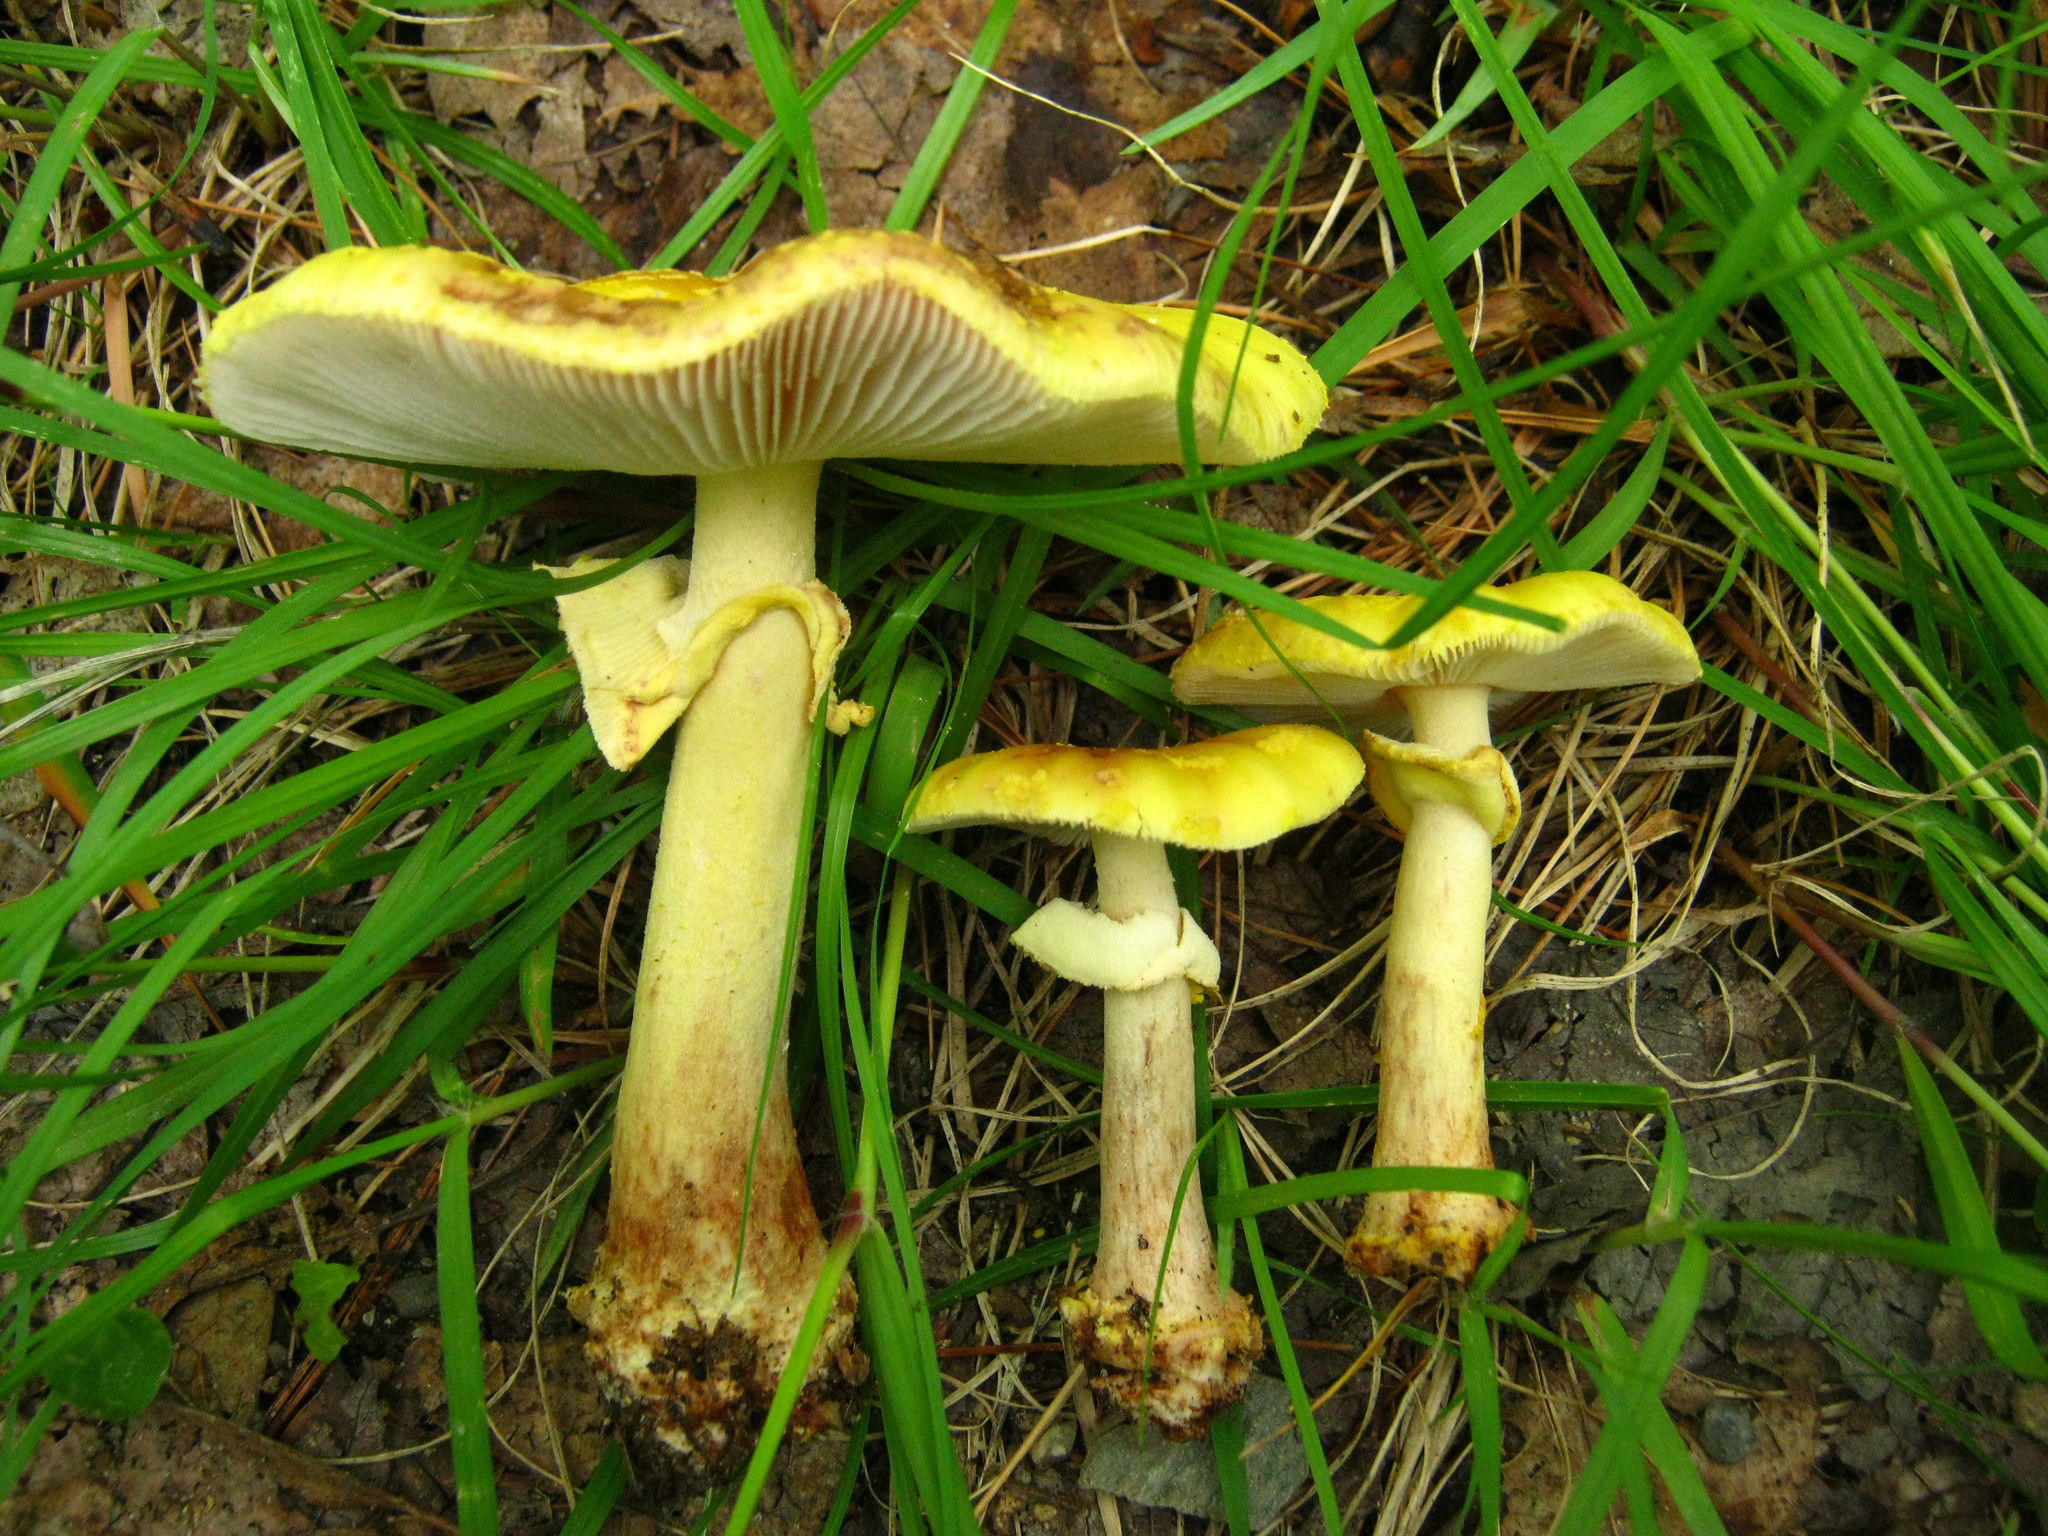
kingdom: Fungi
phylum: Basidiomycota
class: Agaricomycetes
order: Agaricales
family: Amanitaceae
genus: Amanita
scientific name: Amanita flavorubens
